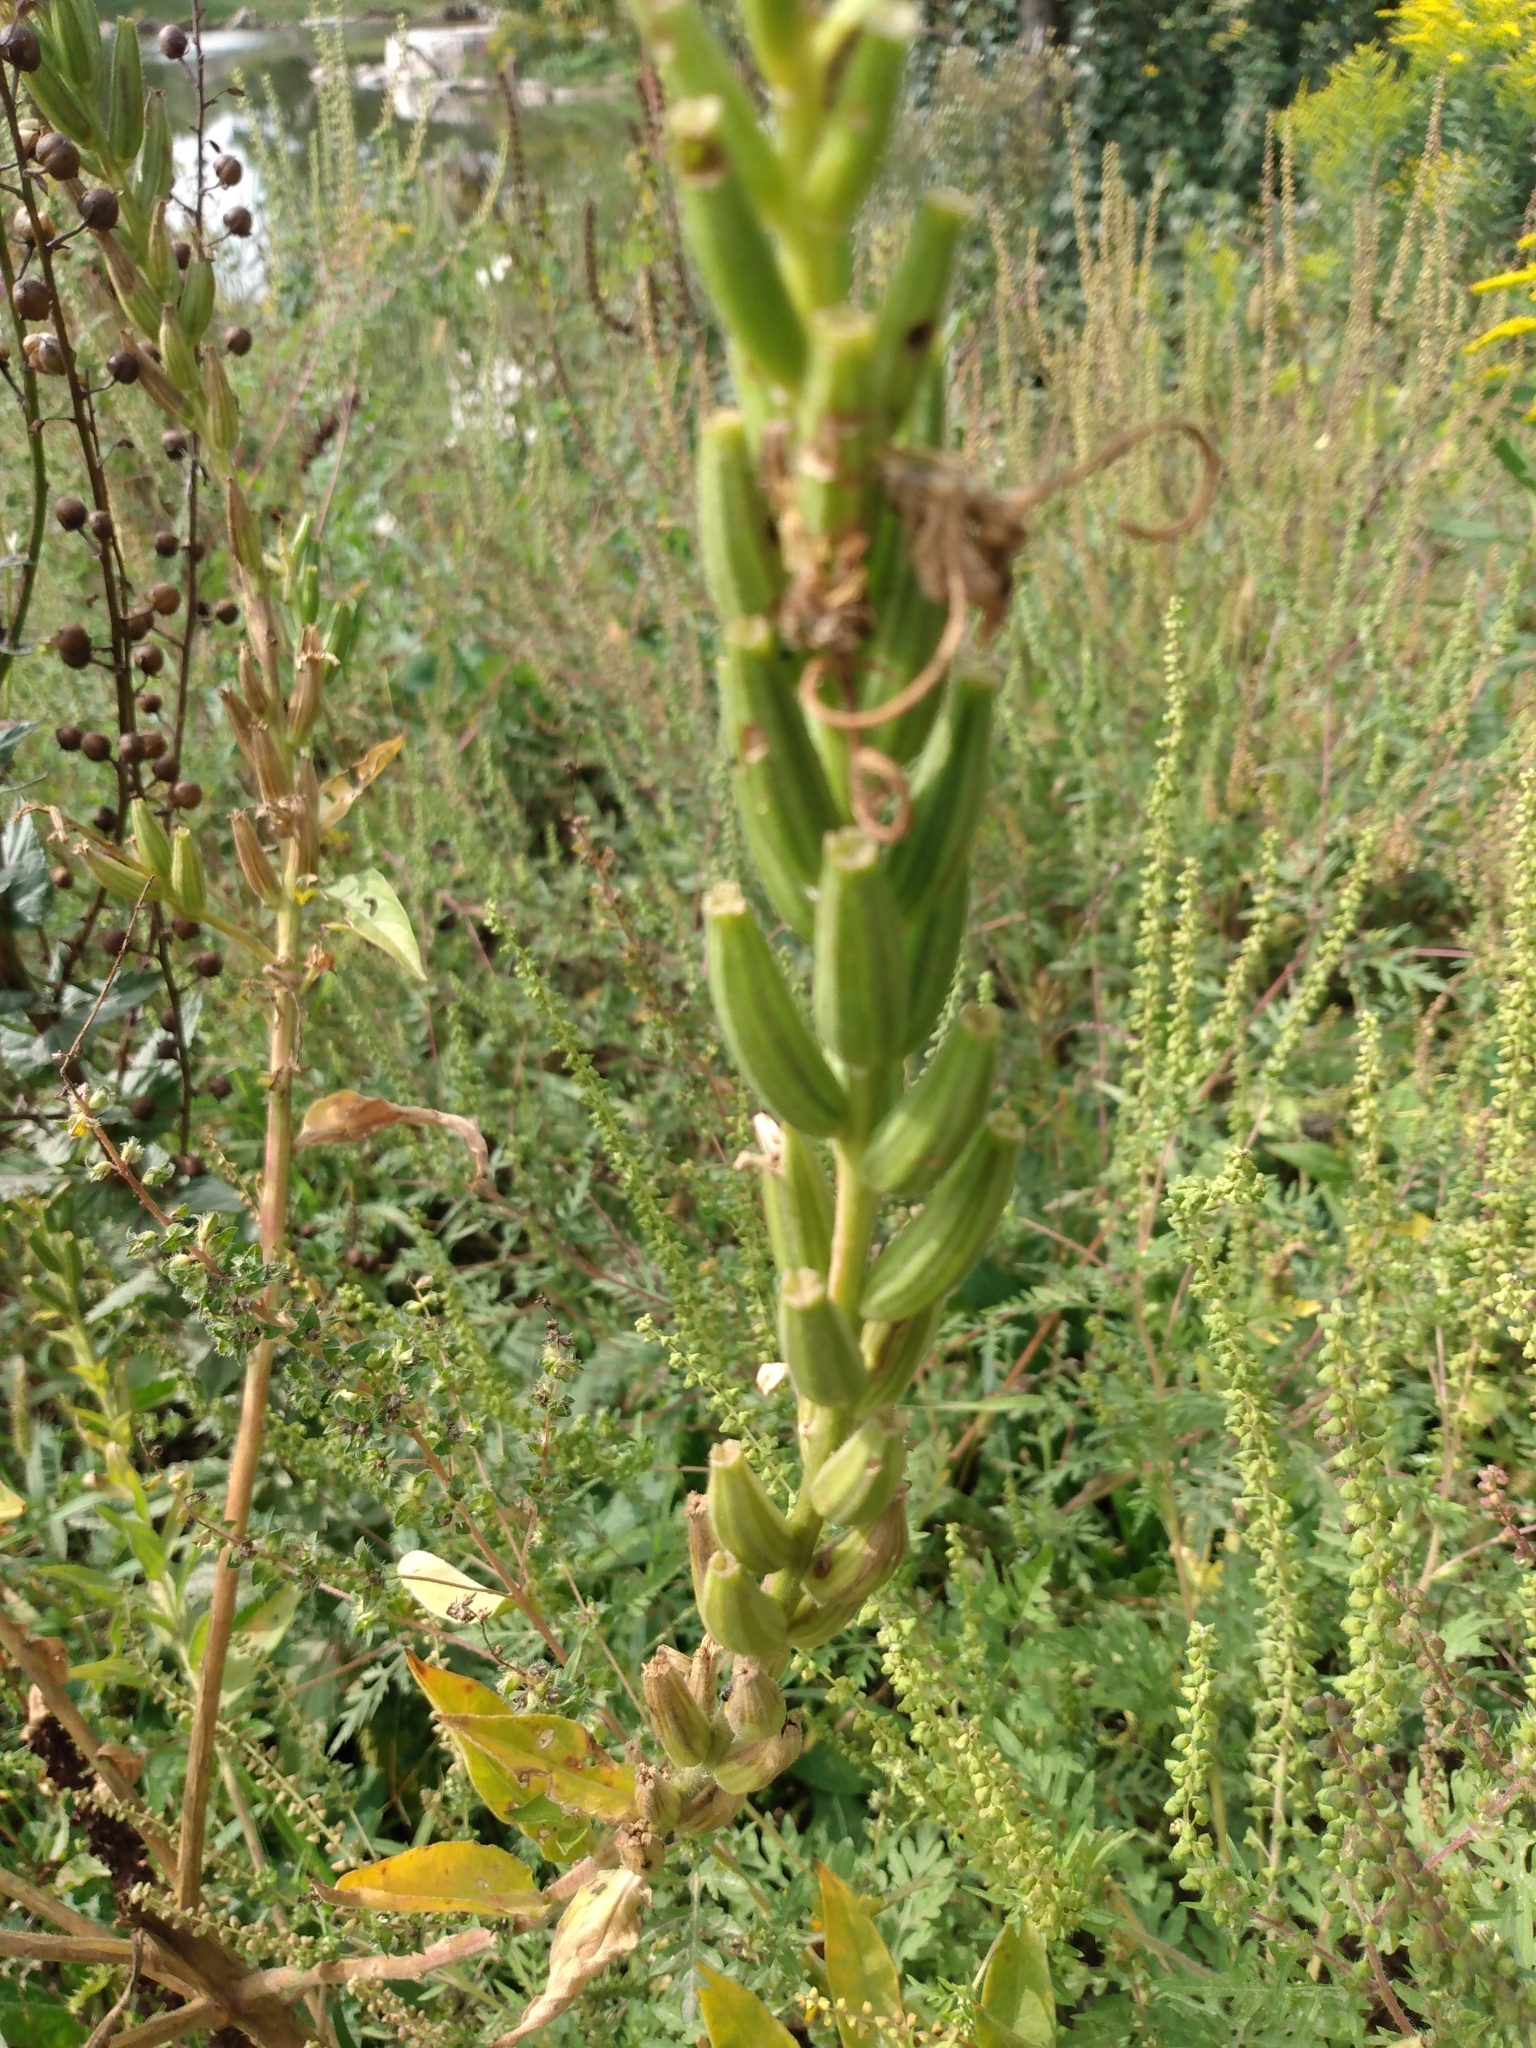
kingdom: Plantae
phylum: Tracheophyta
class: Magnoliopsida
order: Myrtales
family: Onagraceae
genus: Oenothera
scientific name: Oenothera biennis
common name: Common evening-primrose
